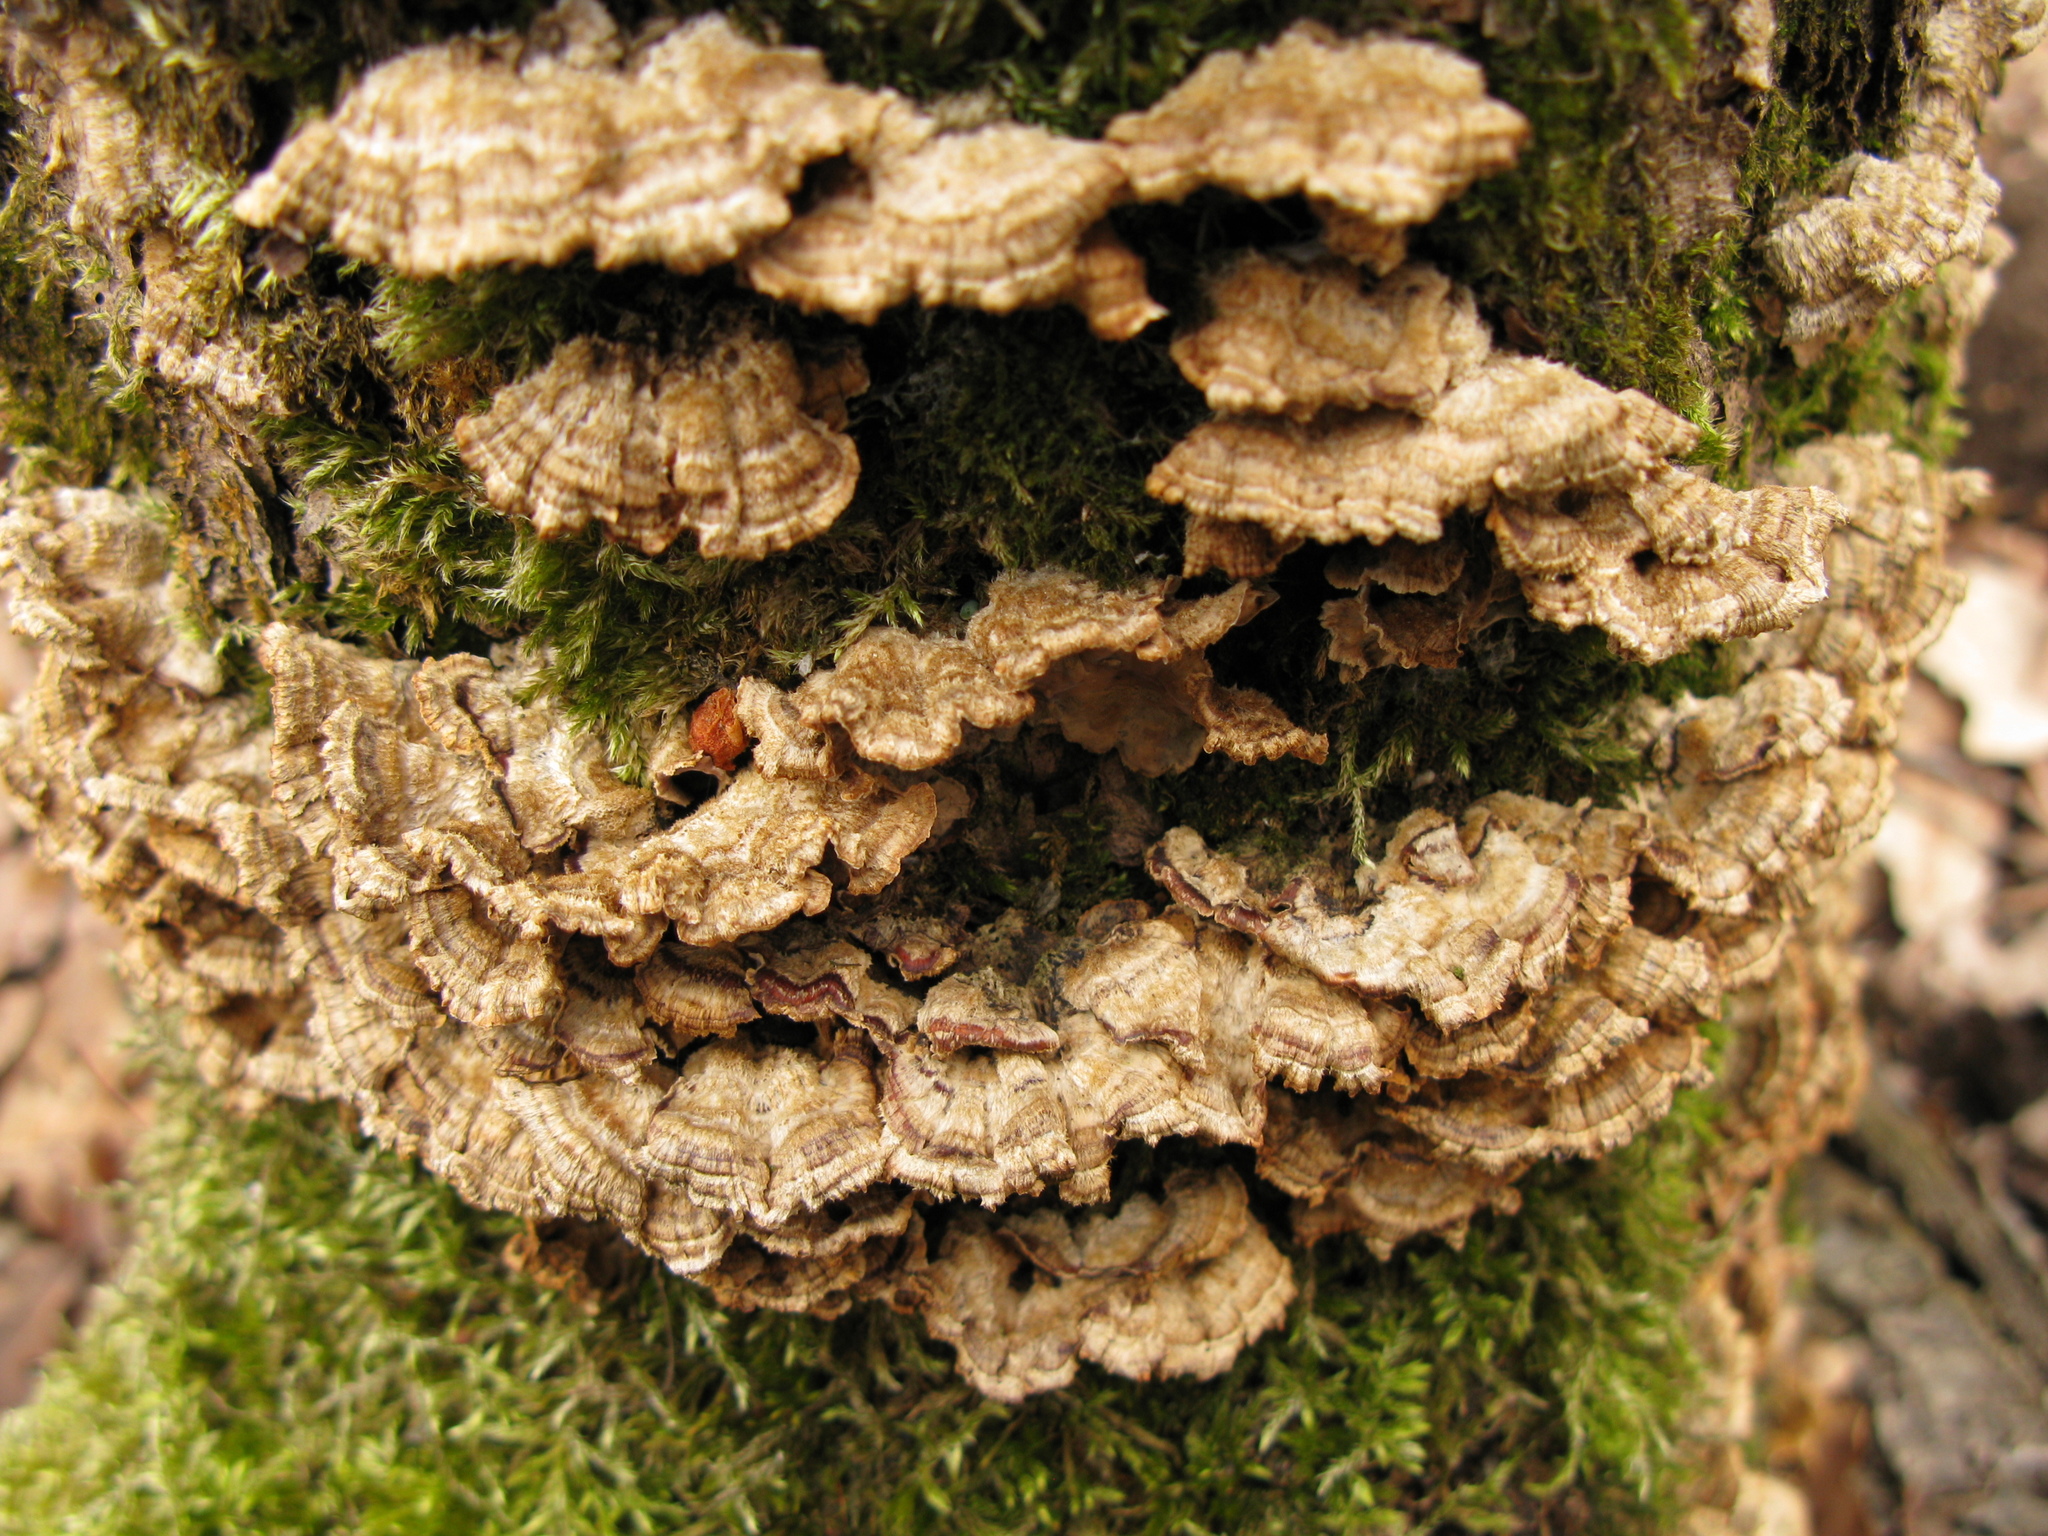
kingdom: Fungi
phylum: Basidiomycota
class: Agaricomycetes
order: Russulales
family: Stereaceae
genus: Stereum
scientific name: Stereum hirsutum
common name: Hairy curtain crust
